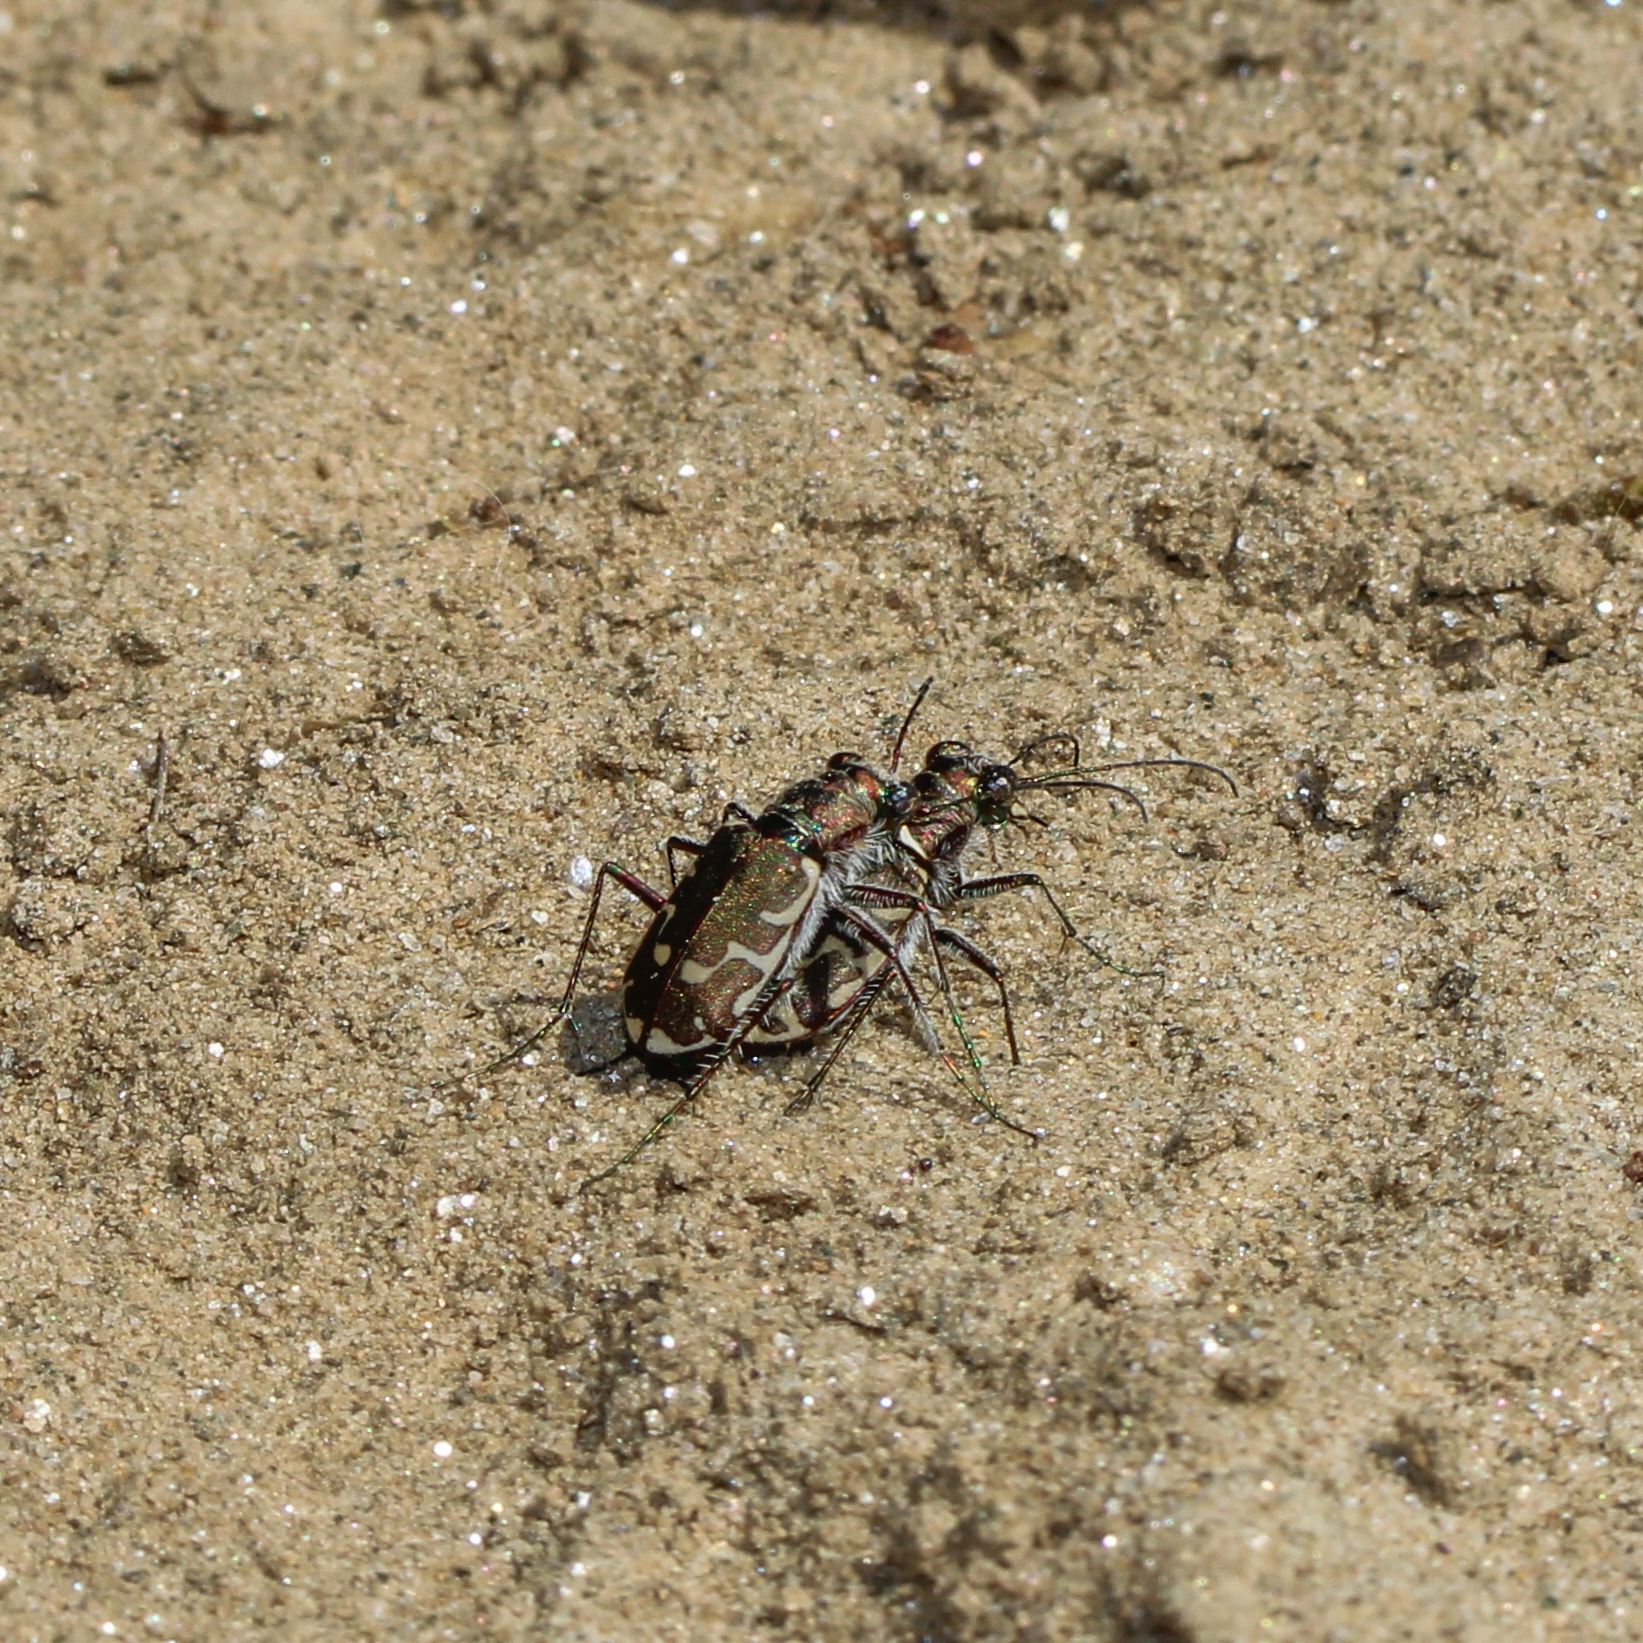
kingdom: Animalia
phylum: Arthropoda
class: Insecta
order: Coleoptera
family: Carabidae
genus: Cicindela
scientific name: Cicindela repanda
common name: Bronzed tiger beetle
